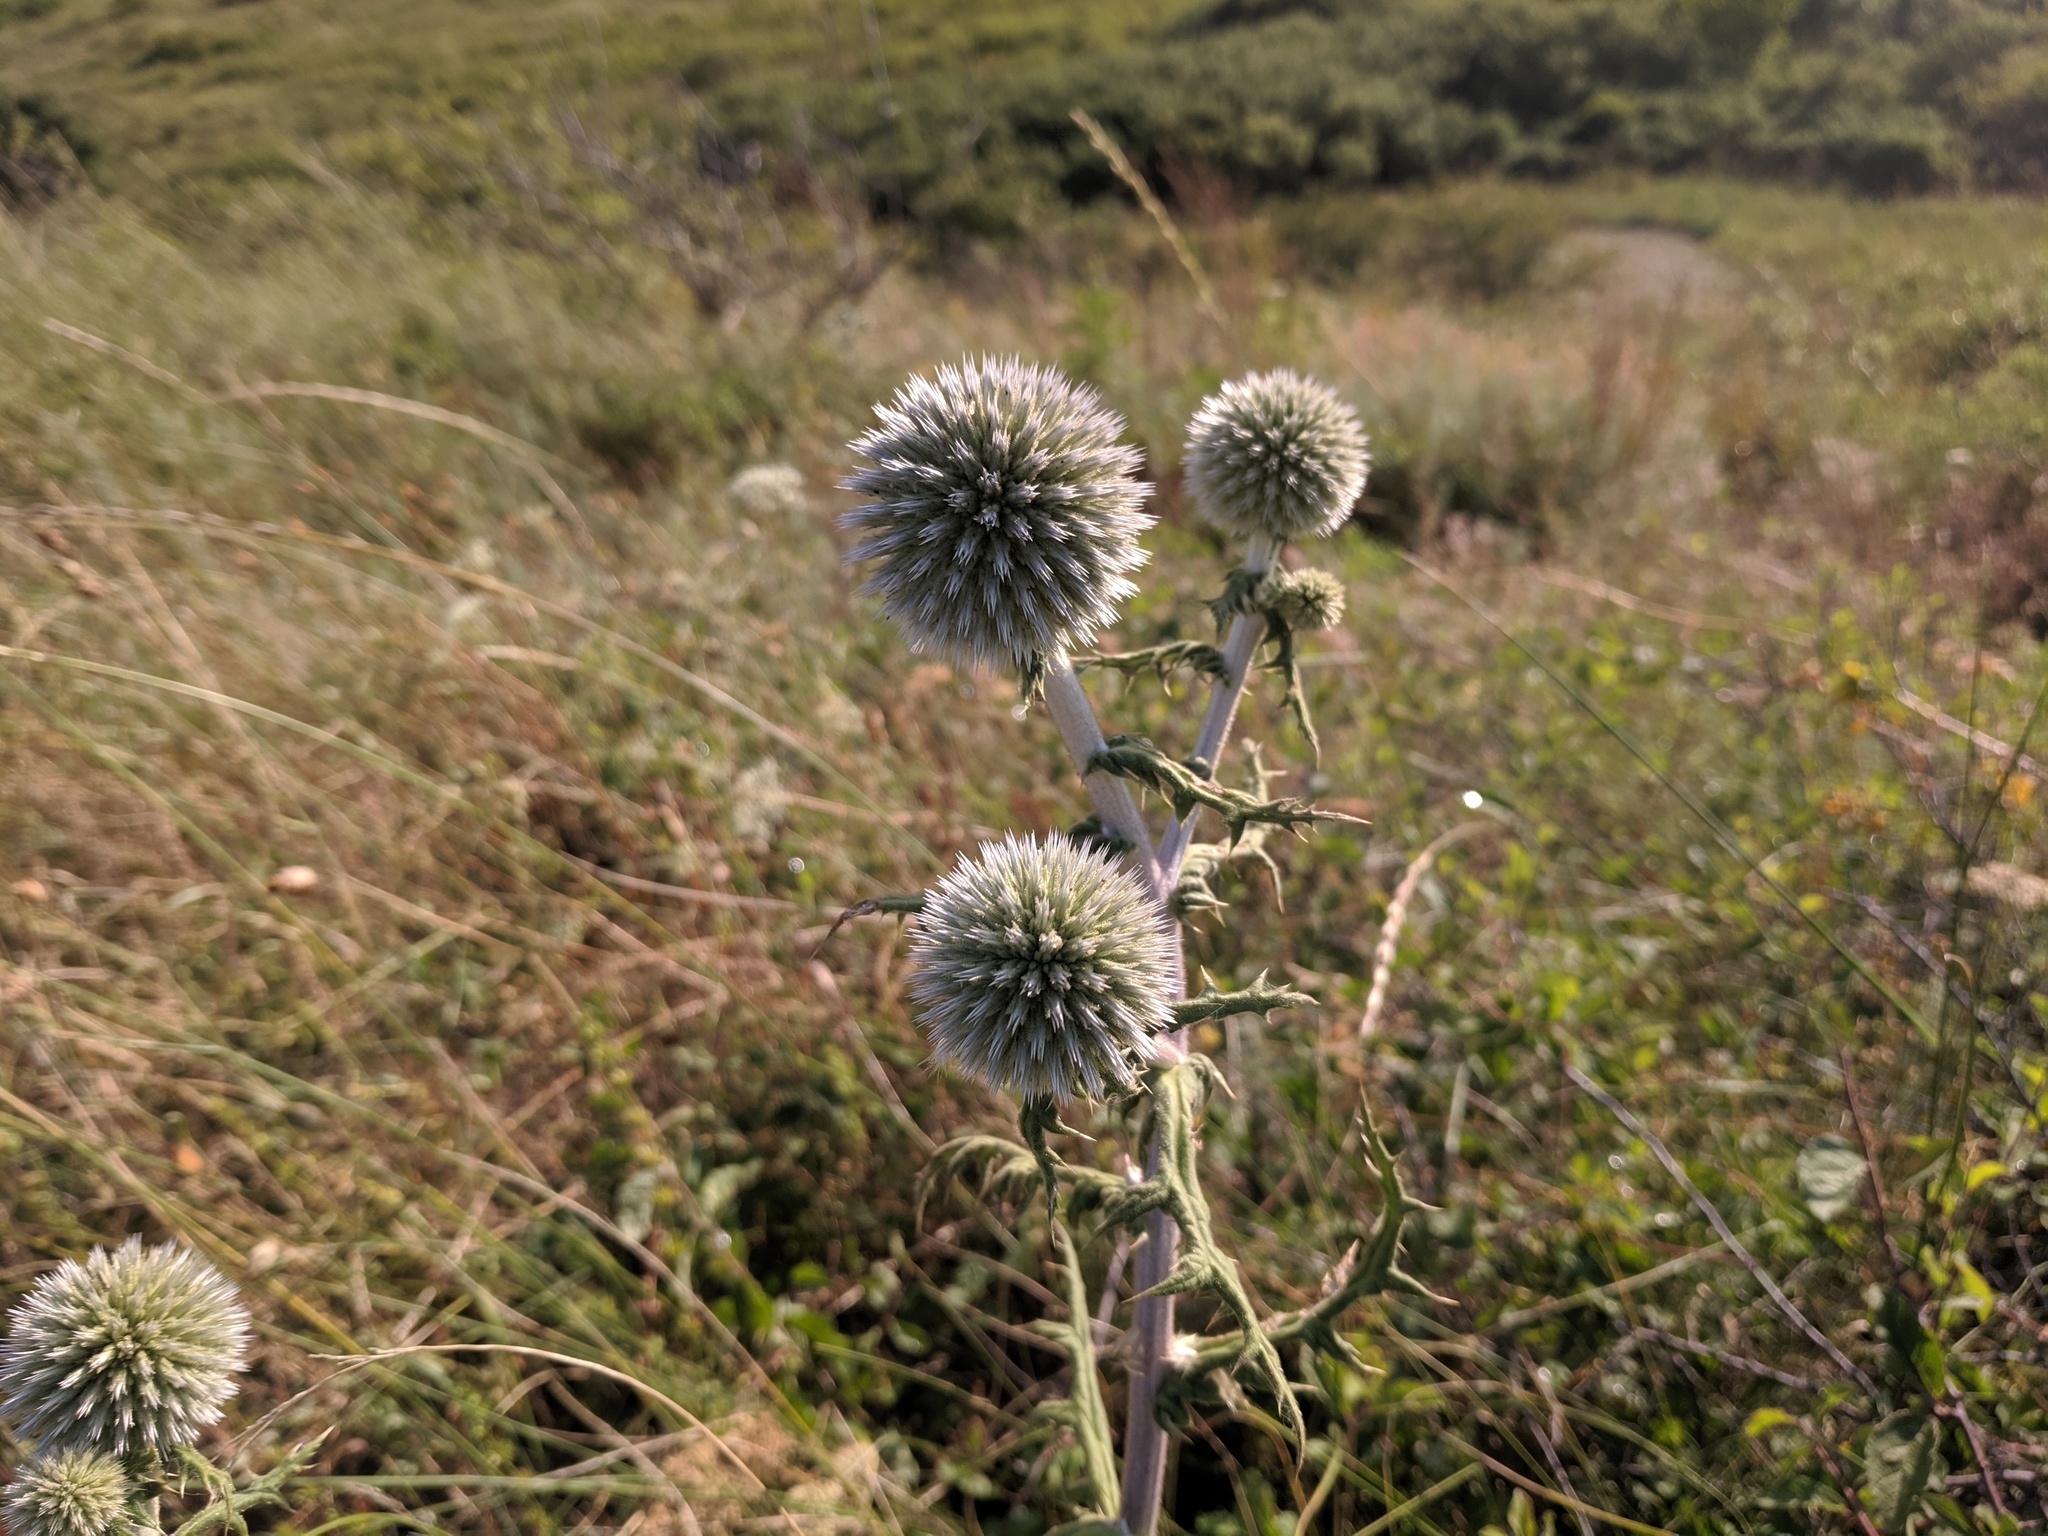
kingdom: Plantae
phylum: Tracheophyta
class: Magnoliopsida
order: Asterales
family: Asteraceae
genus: Echinops
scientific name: Echinops sphaerocephalus
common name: Glandular globe-thistle
